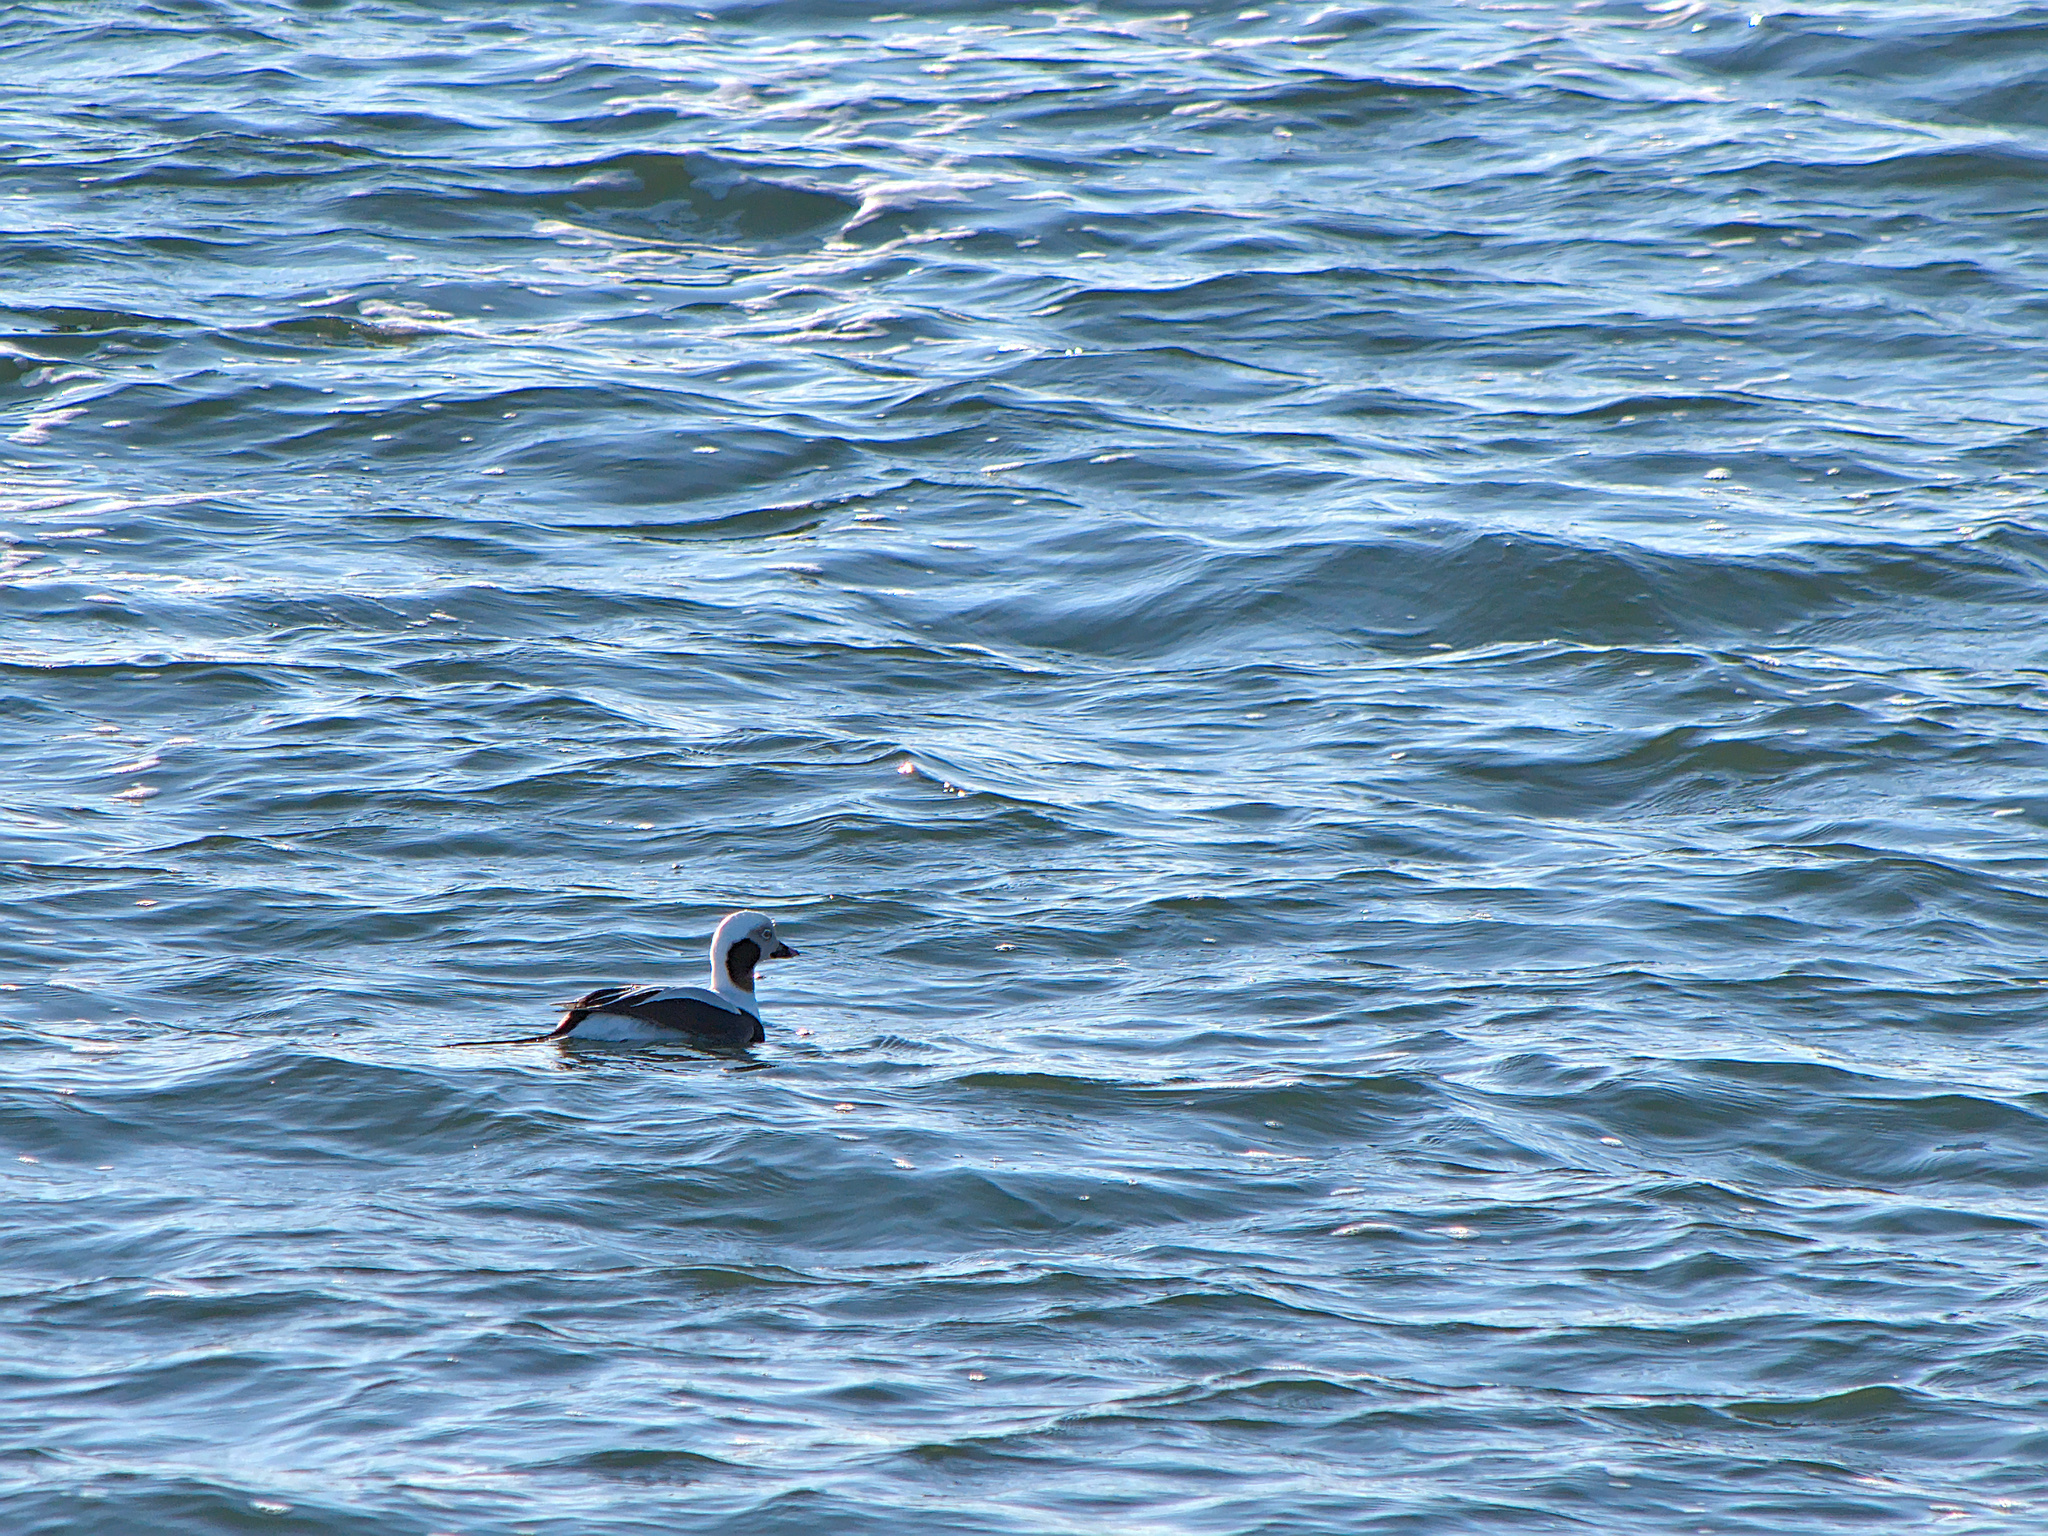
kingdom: Animalia
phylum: Chordata
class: Aves
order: Anseriformes
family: Anatidae
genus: Clangula
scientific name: Clangula hyemalis
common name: Long-tailed duck
